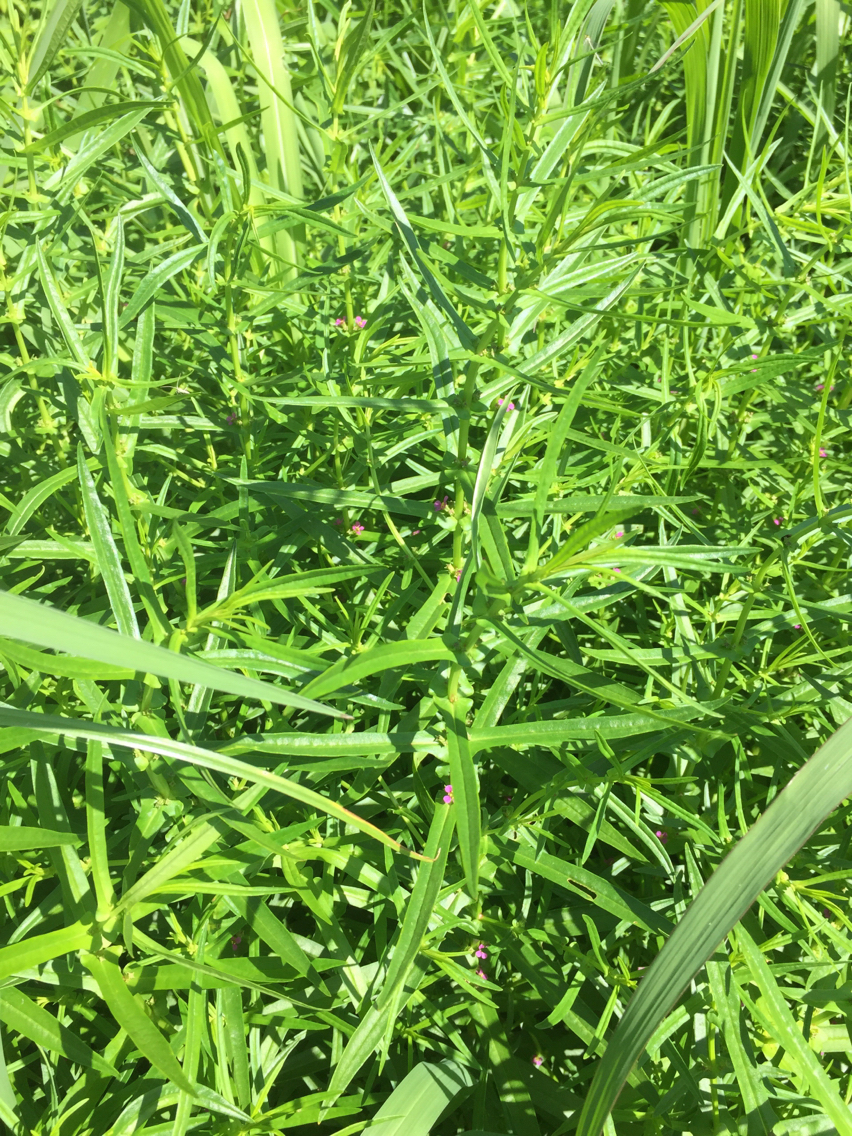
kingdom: Plantae
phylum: Tracheophyta
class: Magnoliopsida
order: Myrtales
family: Lythraceae
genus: Ammannia
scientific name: Ammannia coccinea
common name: Valley redstem
